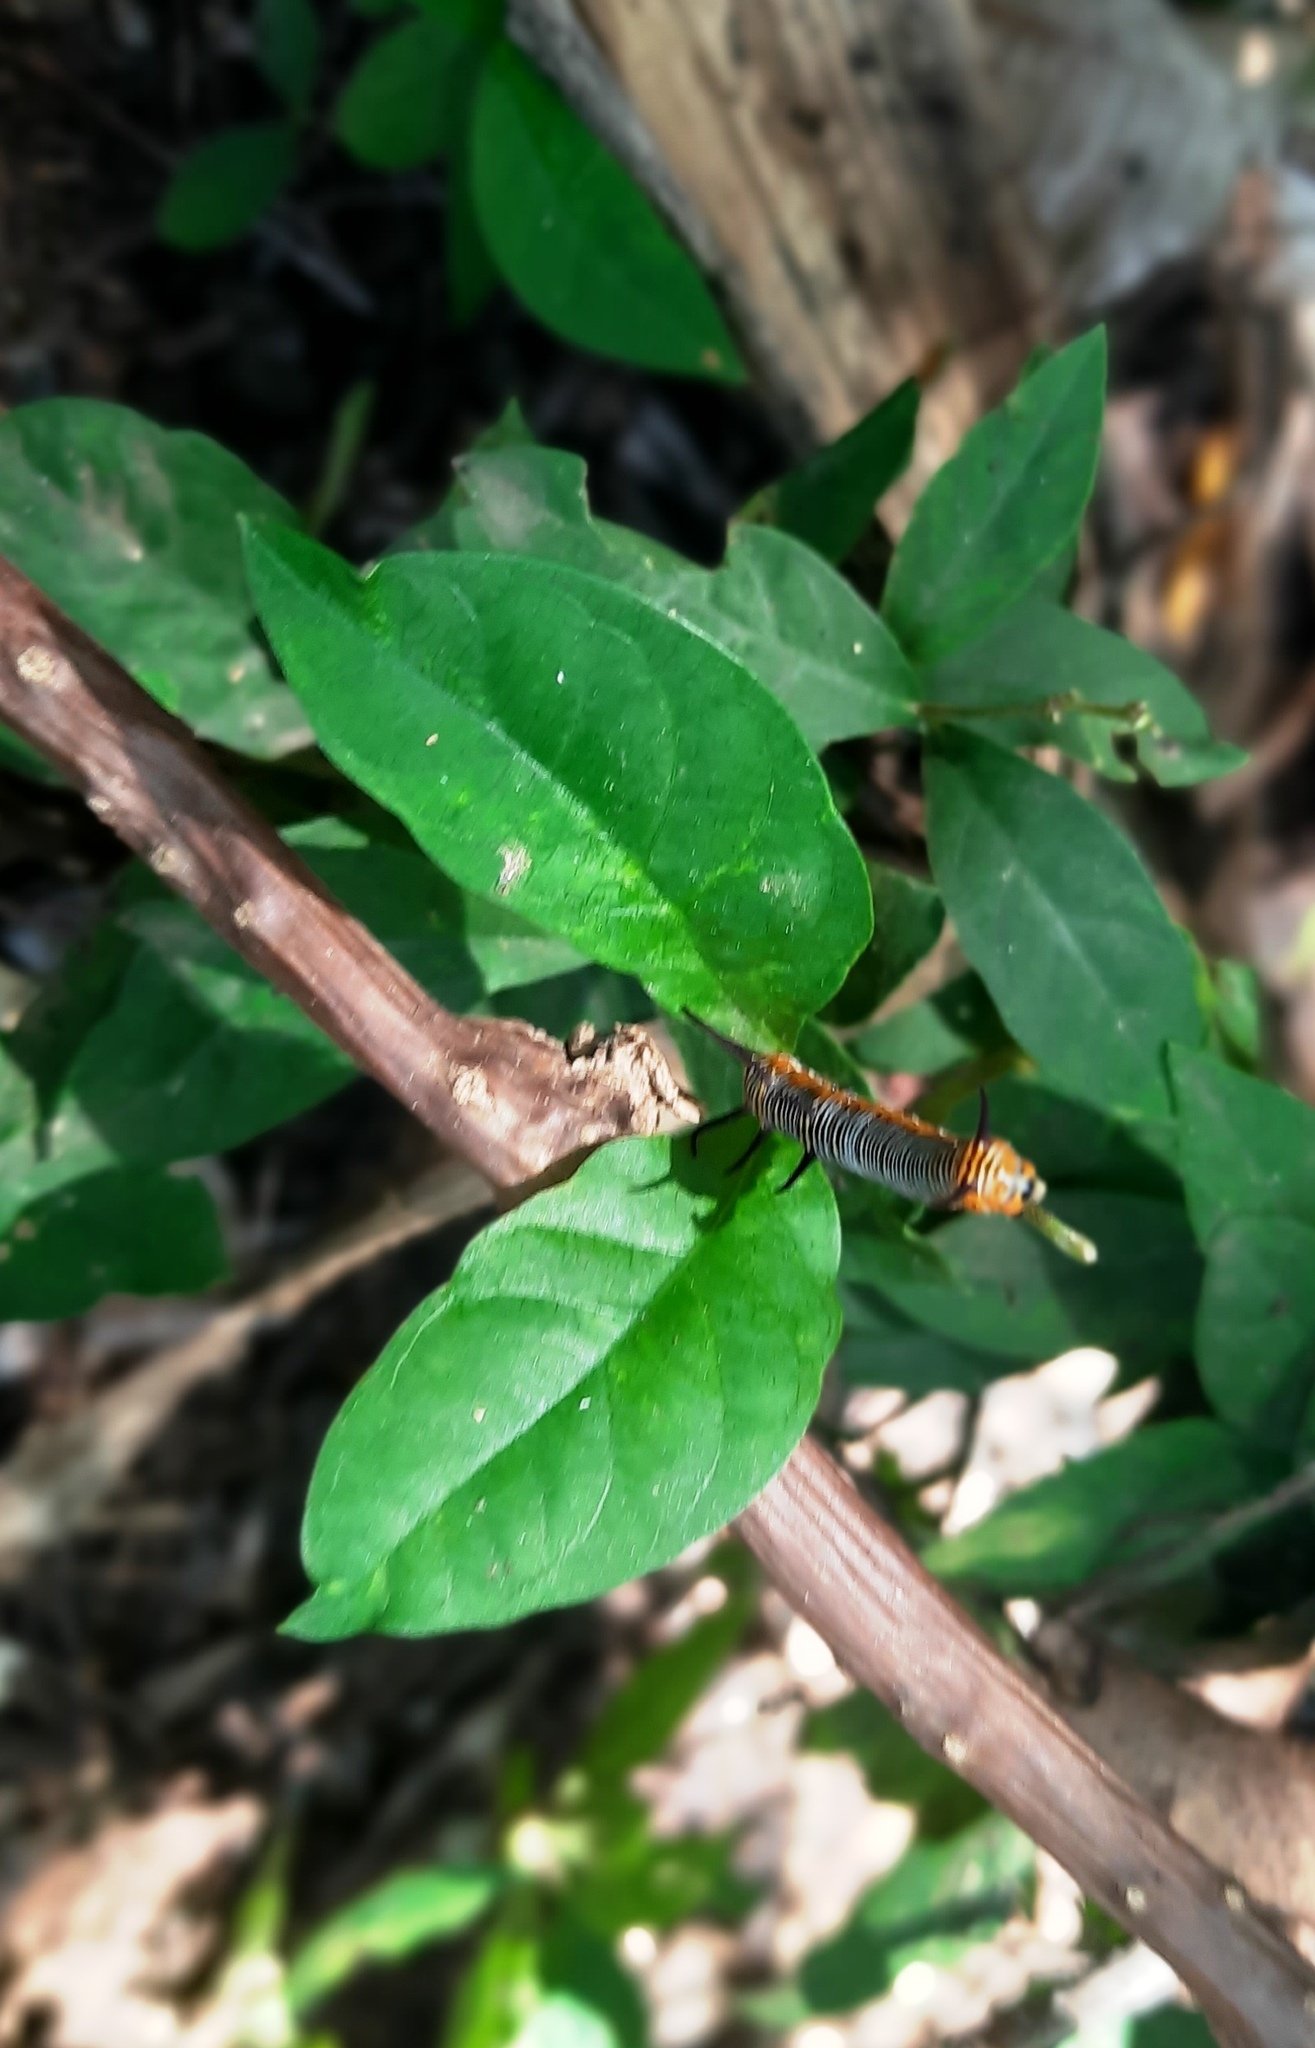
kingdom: Animalia
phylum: Arthropoda
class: Insecta
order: Lepidoptera
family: Nymphalidae
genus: Euploea
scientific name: Euploea core
